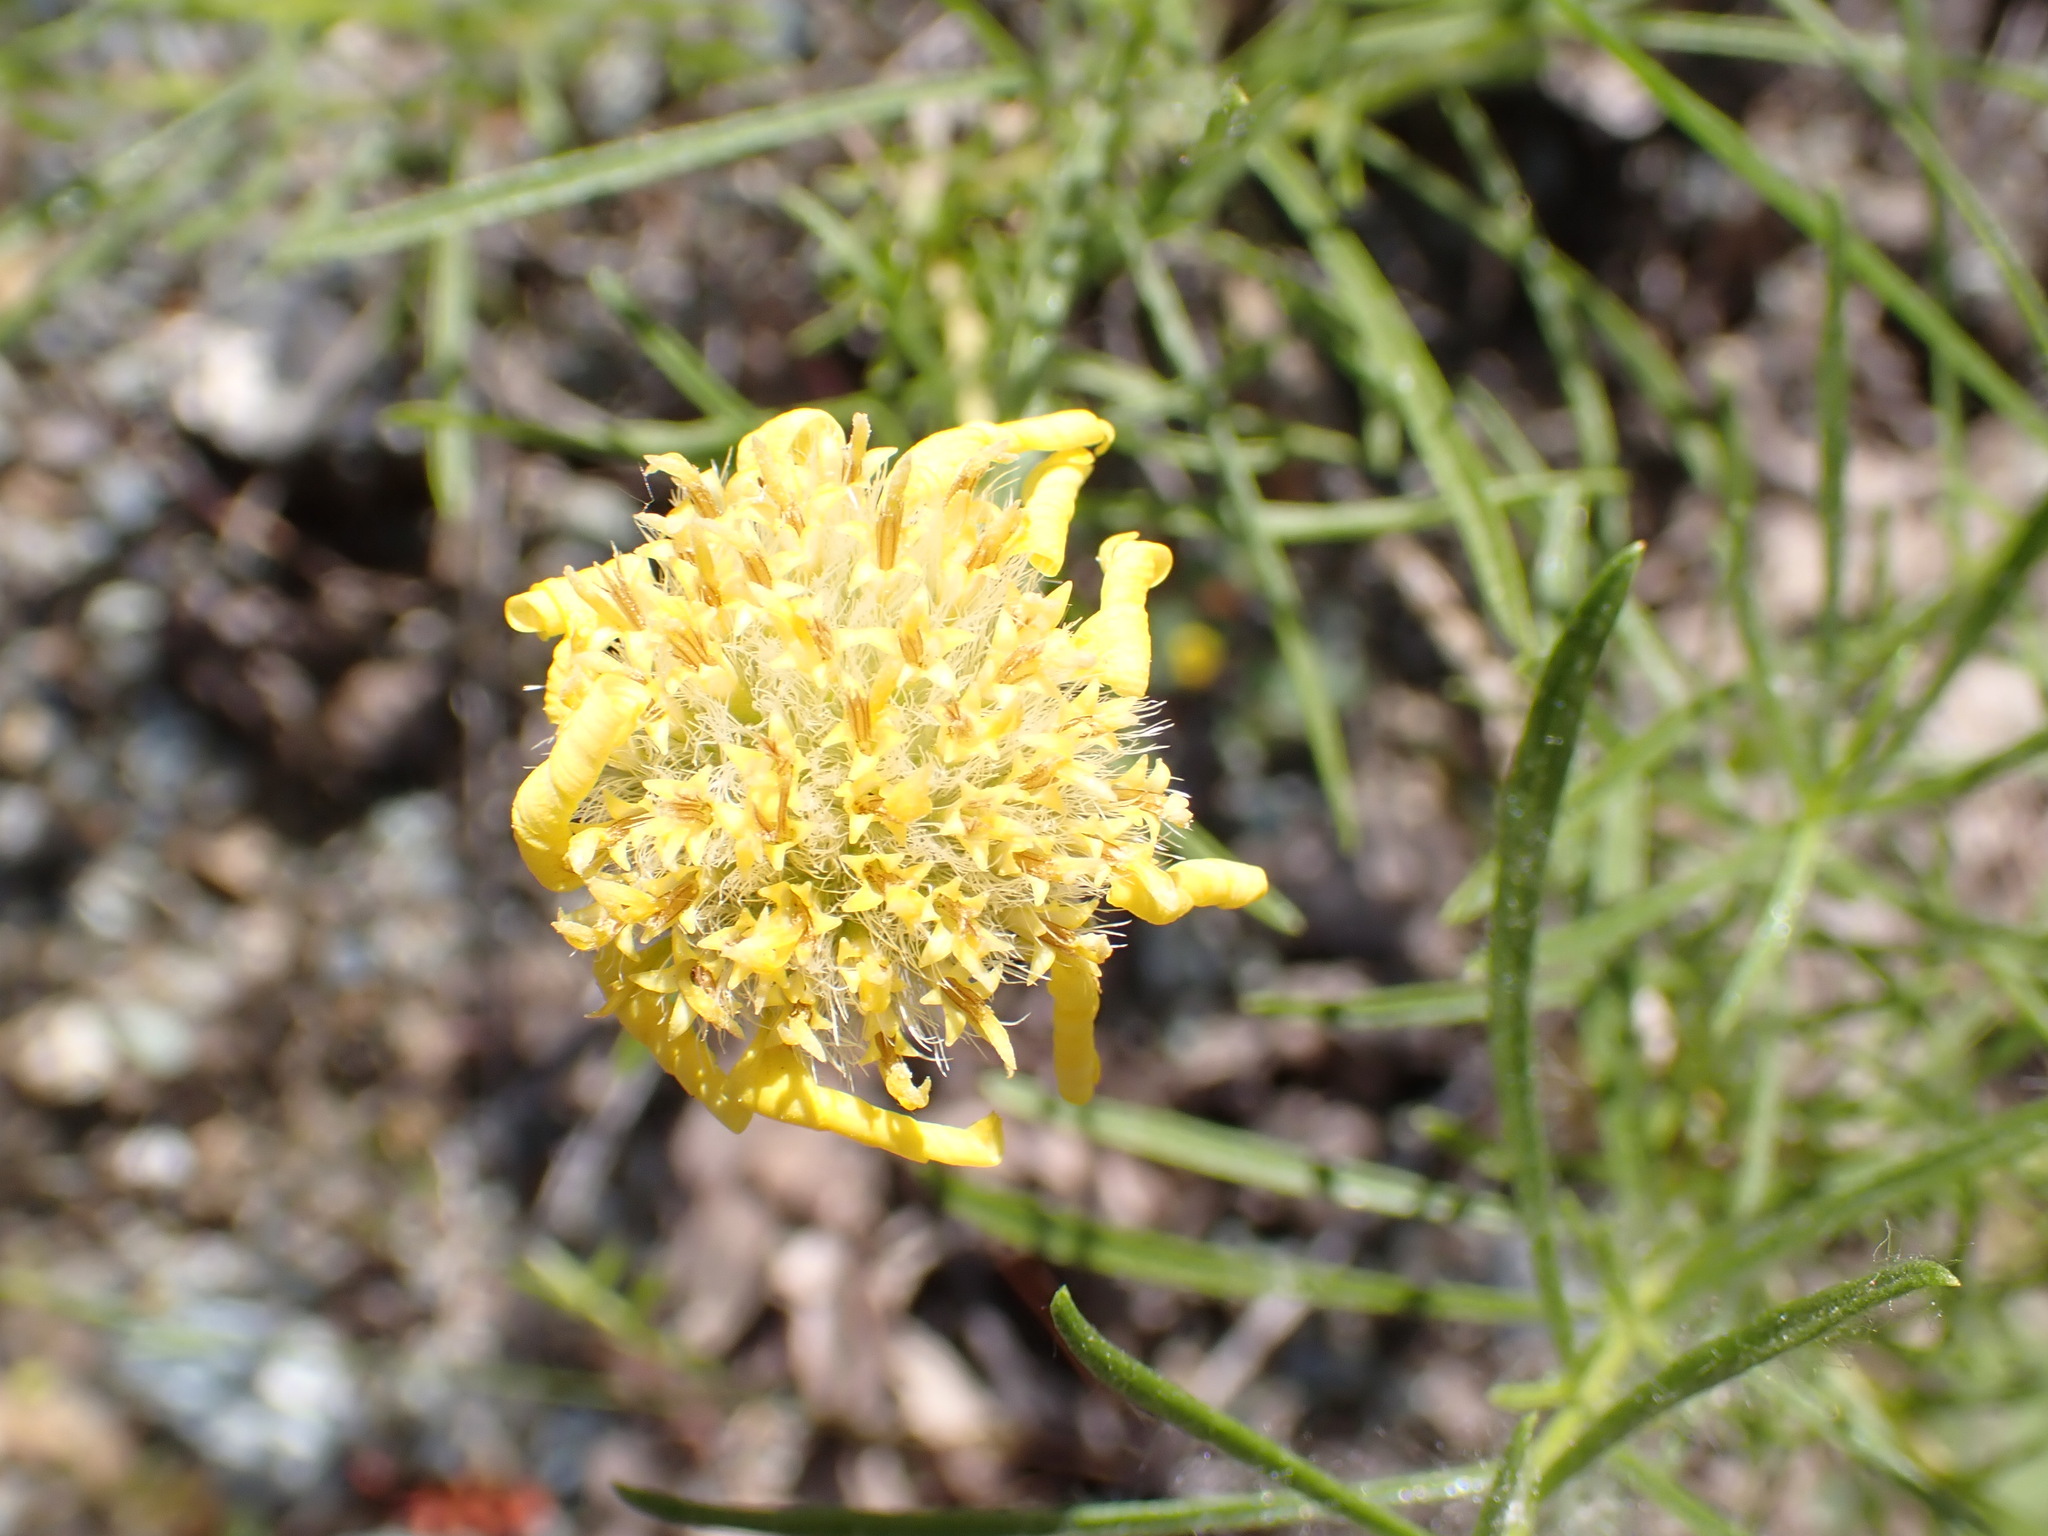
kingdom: Plantae
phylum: Tracheophyta
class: Magnoliopsida
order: Asterales
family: Asteraceae
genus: Ericameria
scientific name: Ericameria linearifolia
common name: Interior goldenbush
